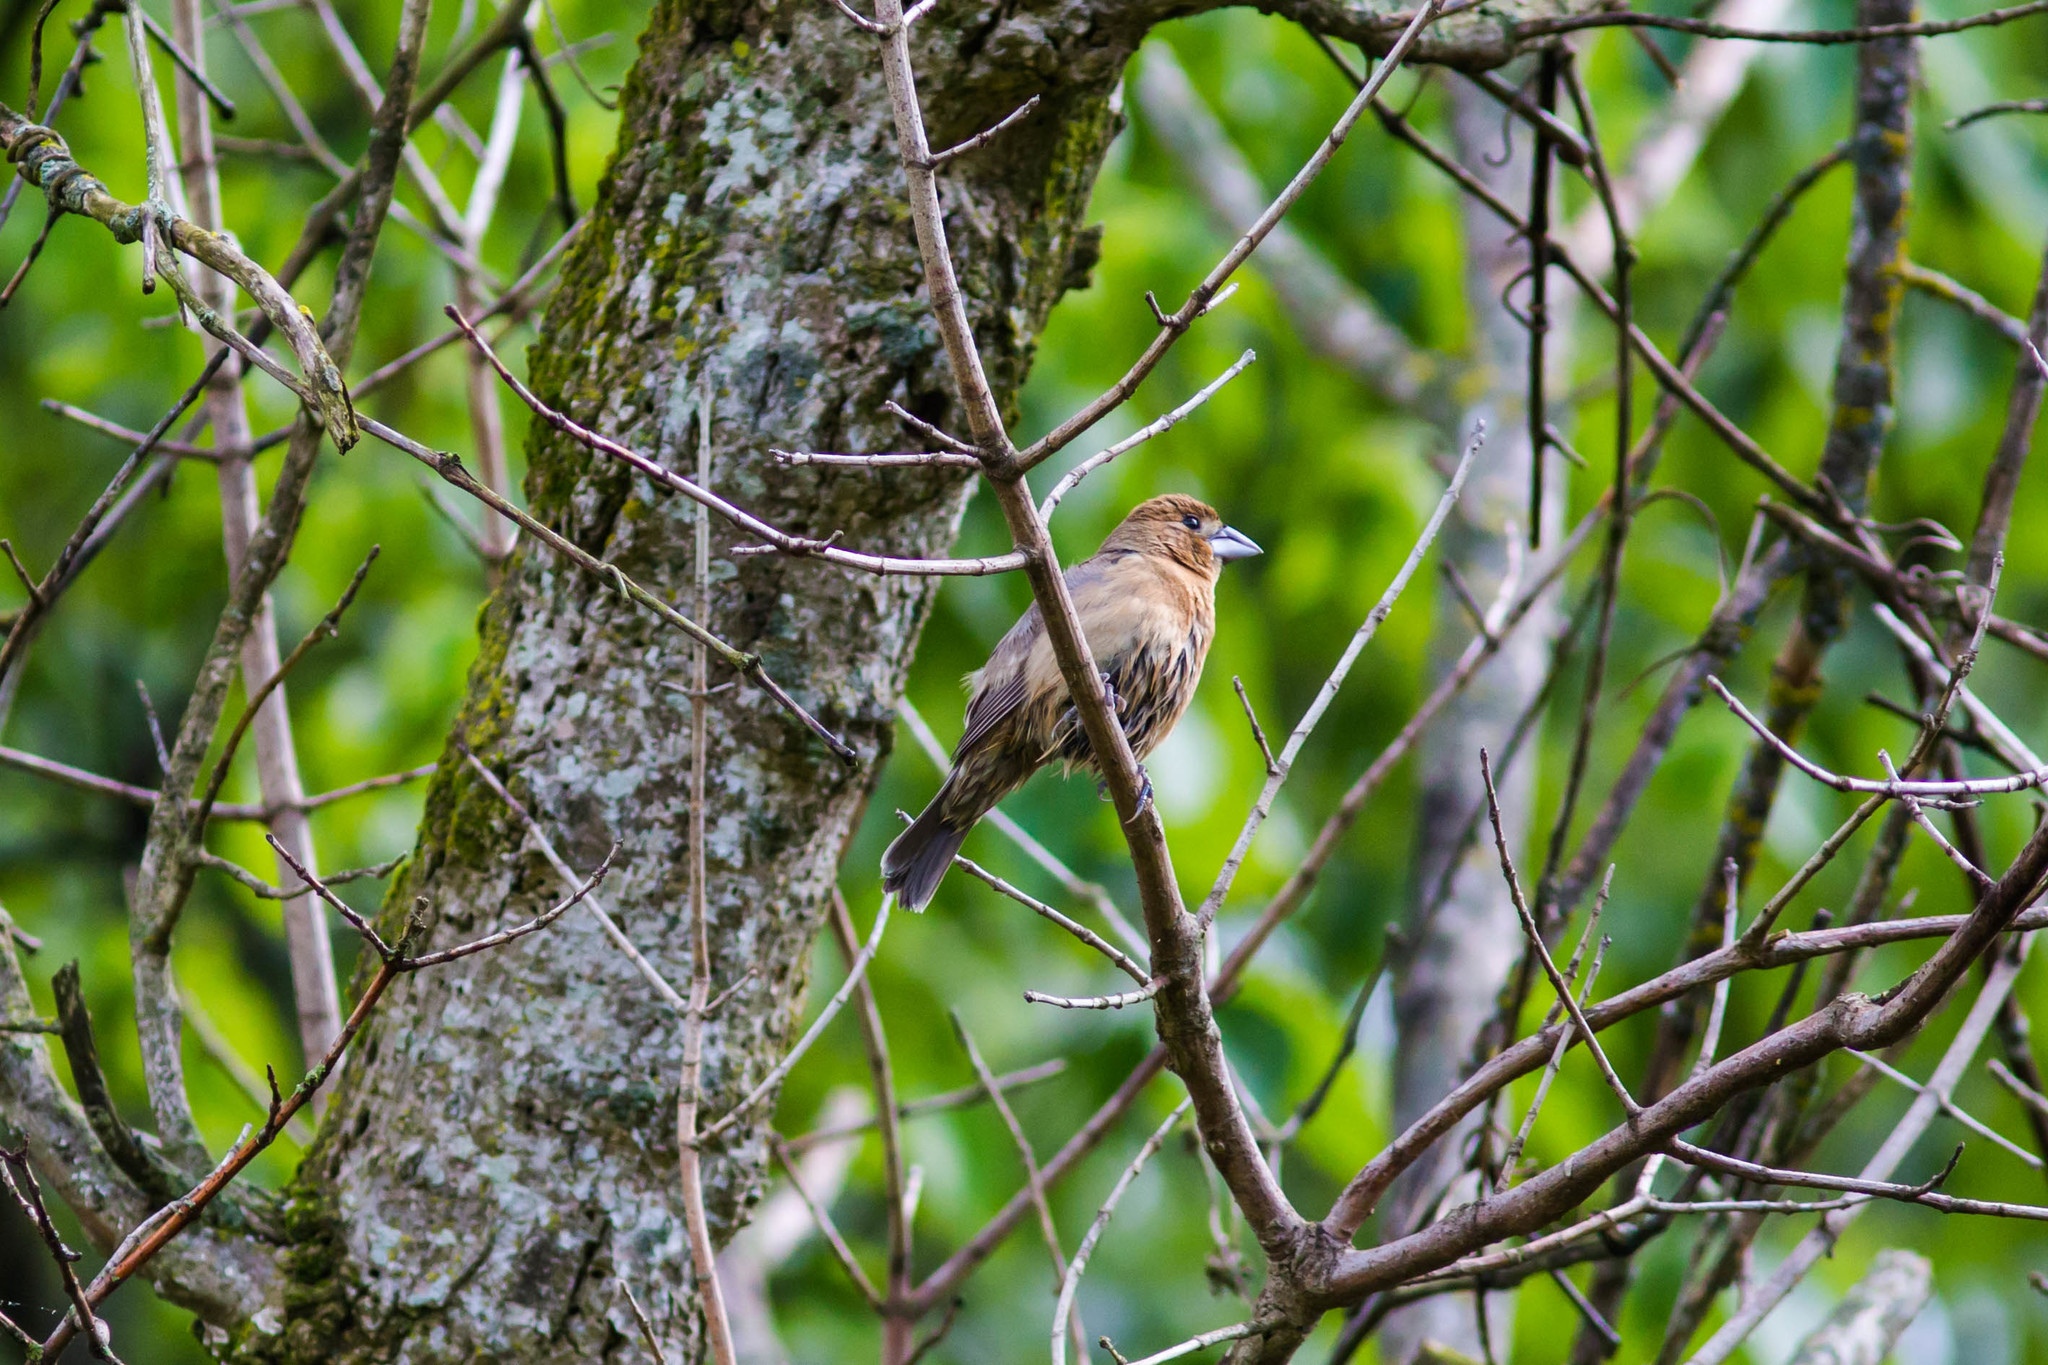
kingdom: Animalia
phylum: Chordata
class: Aves
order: Passeriformes
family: Cardinalidae
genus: Passerina
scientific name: Passerina caerulea
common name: Blue grosbeak
